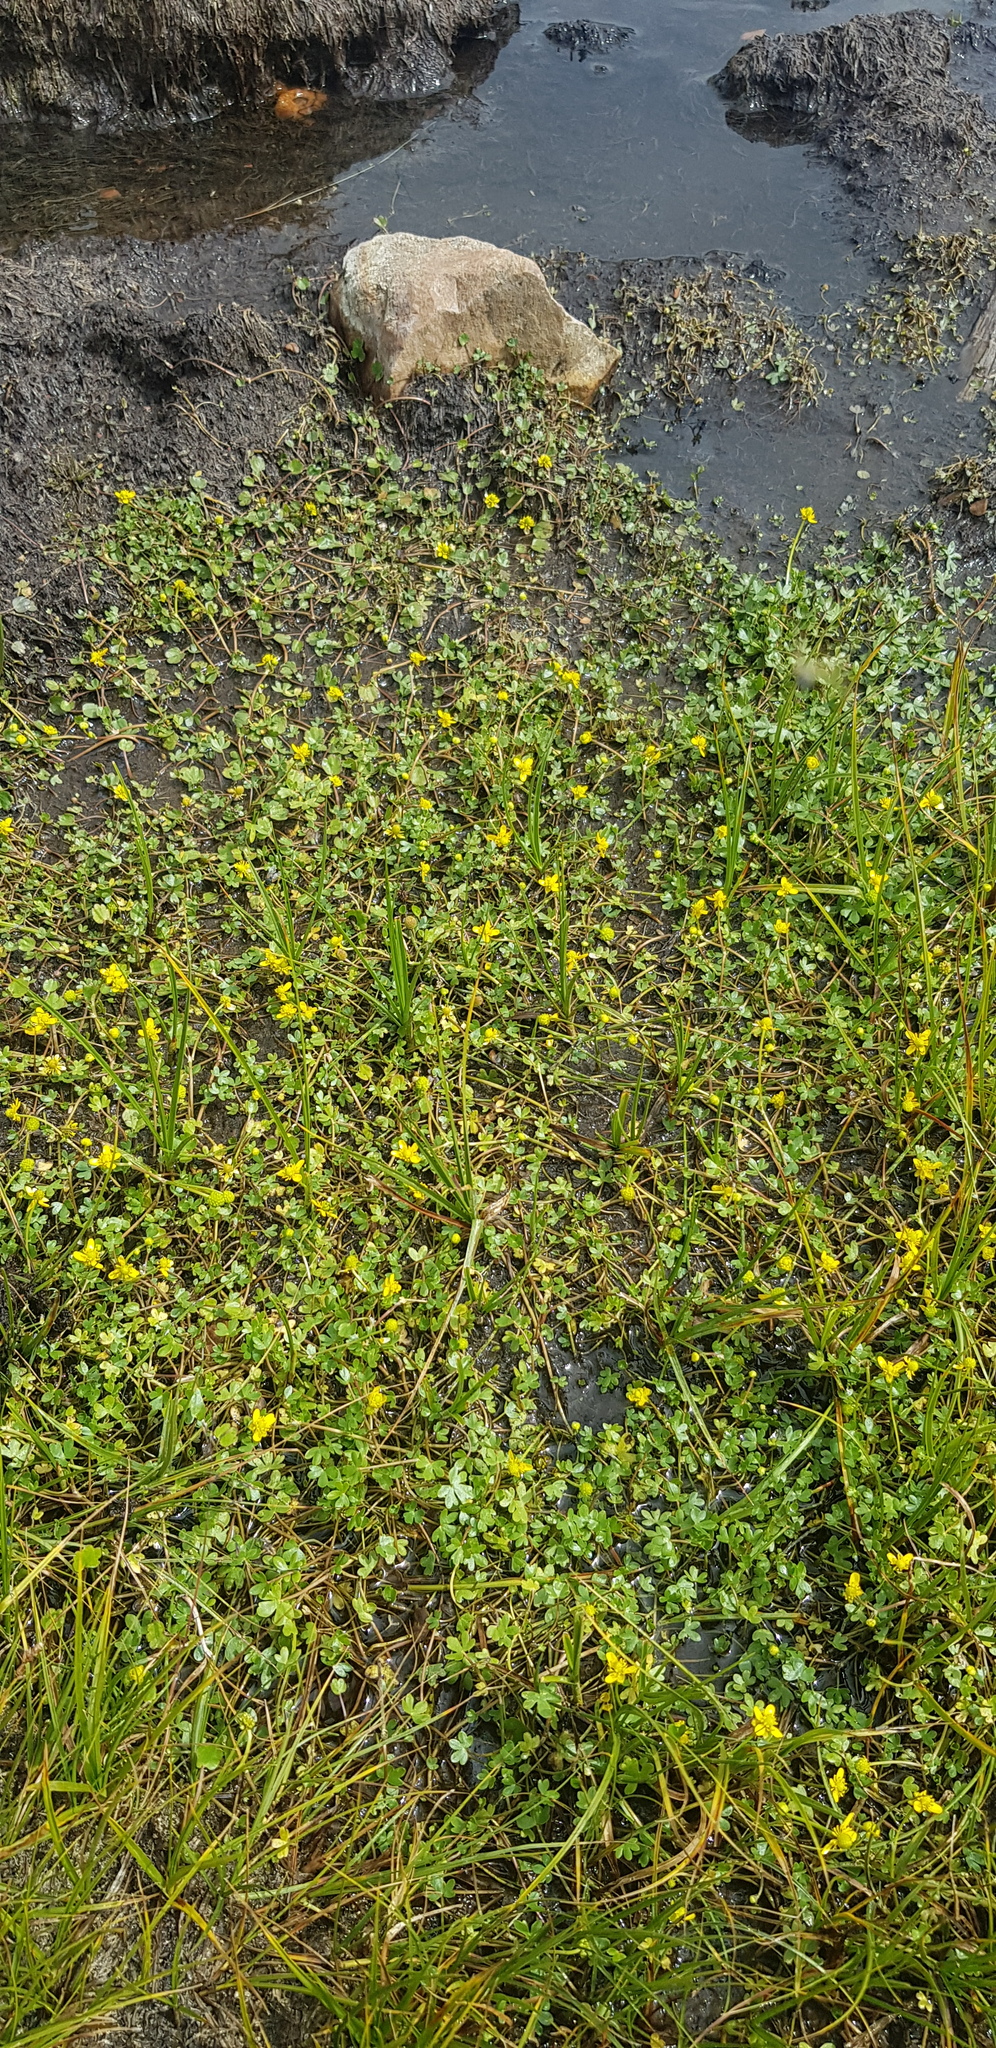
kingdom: Plantae
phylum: Tracheophyta
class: Magnoliopsida
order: Ranunculales
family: Ranunculaceae
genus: Ranunculus
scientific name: Ranunculus natans
